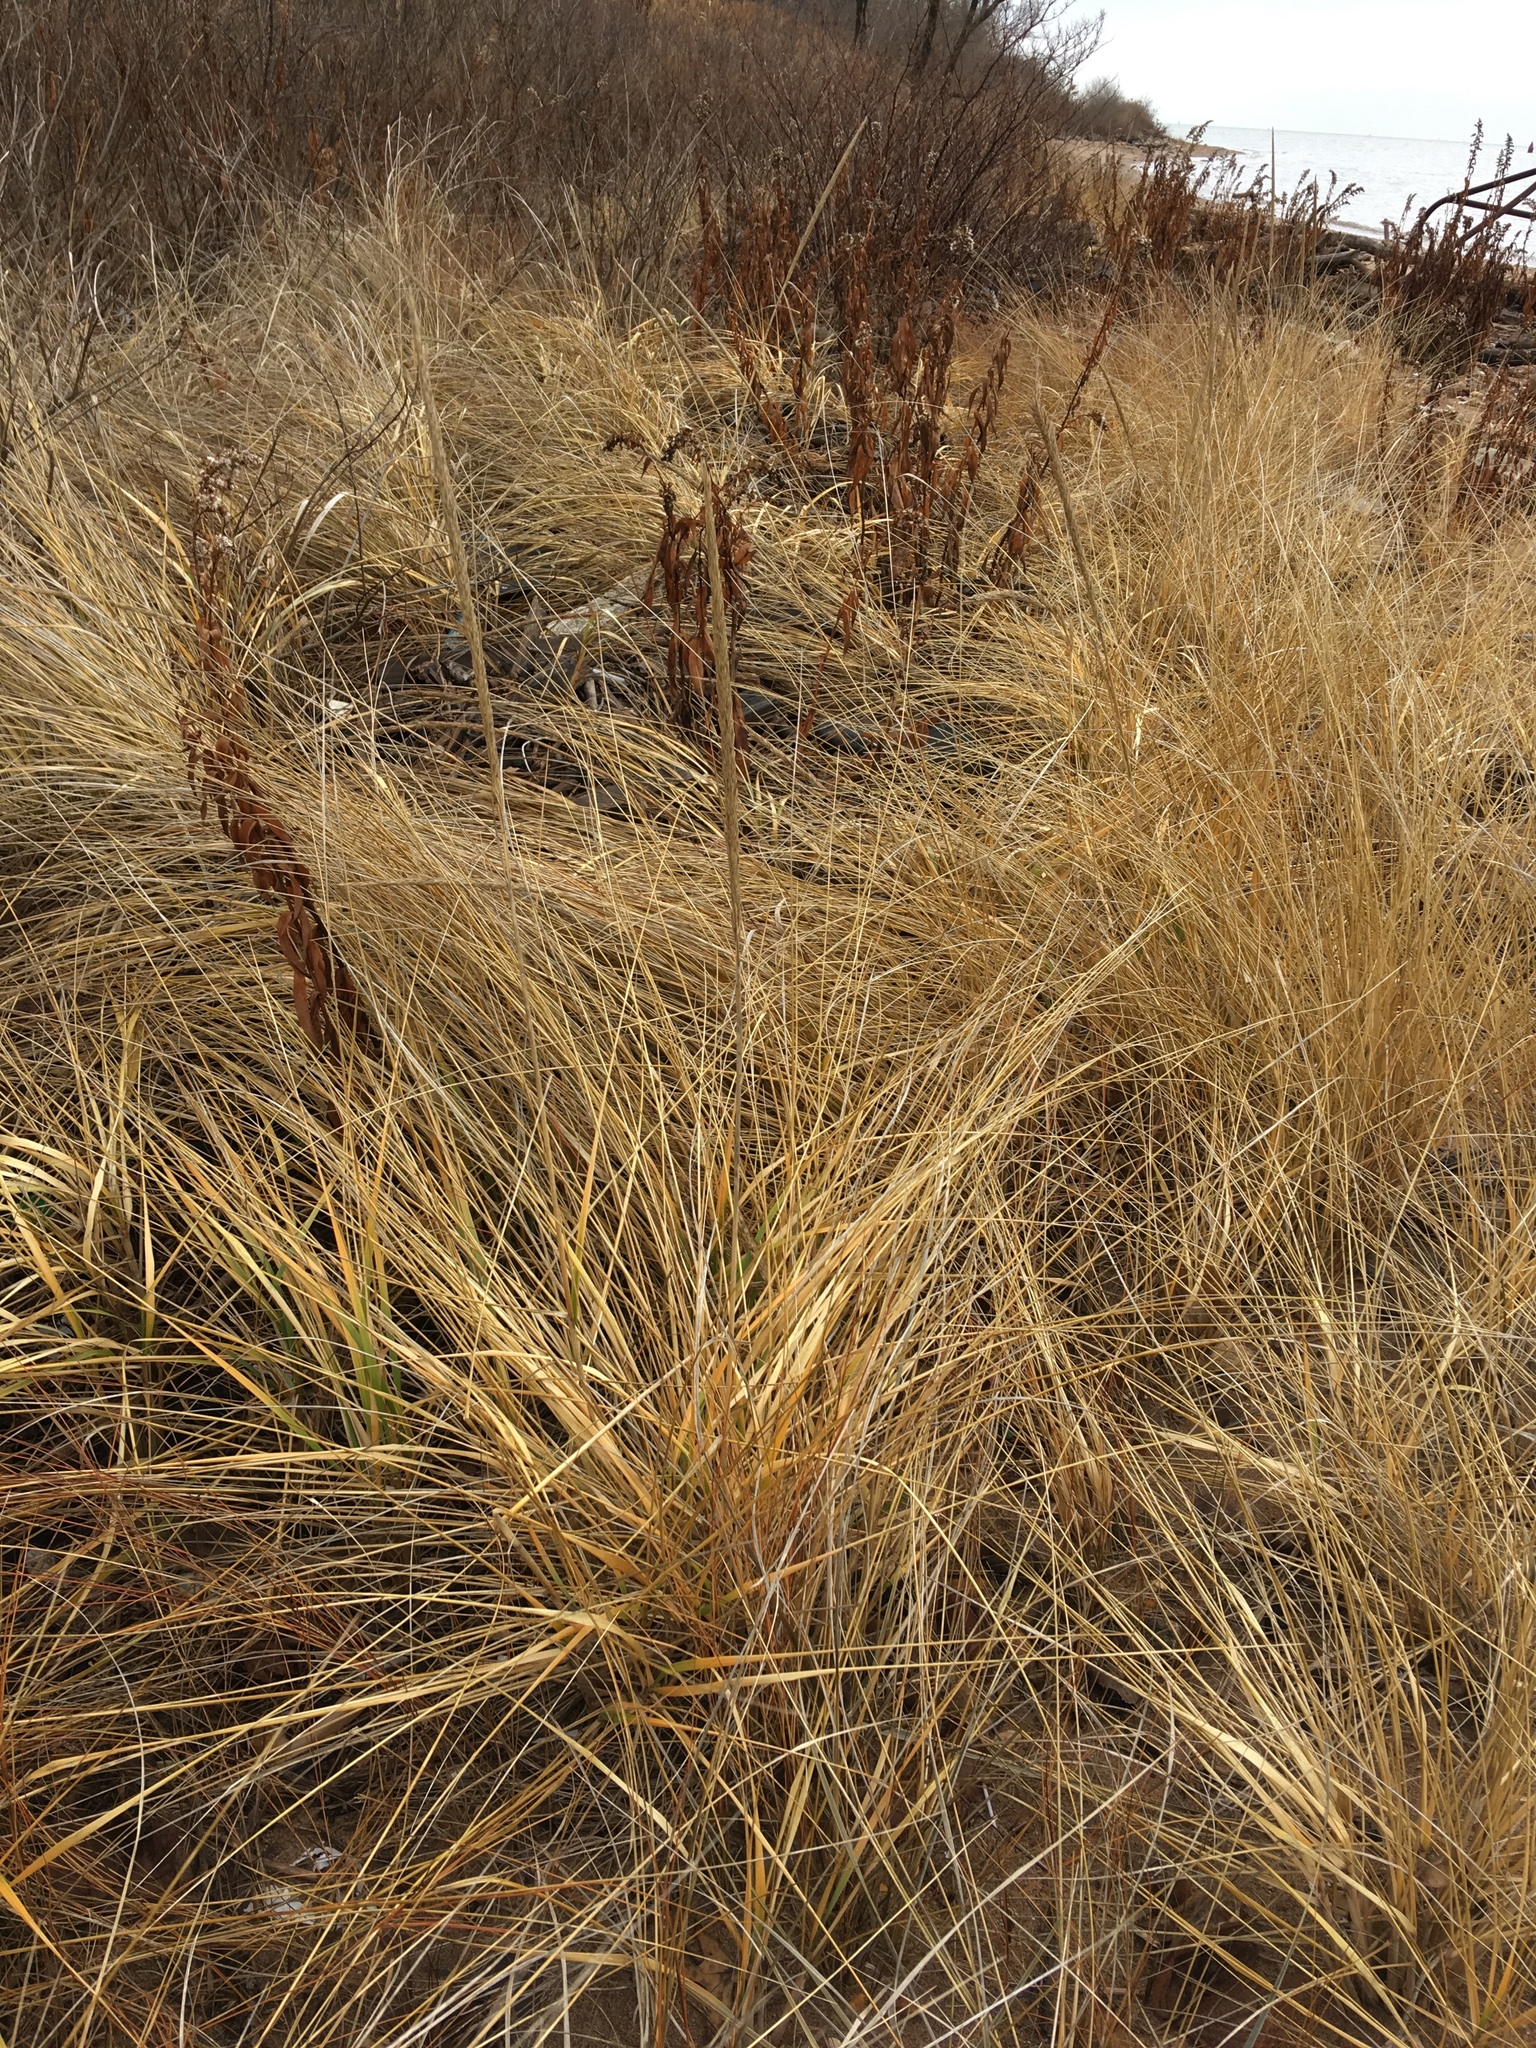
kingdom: Plantae
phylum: Tracheophyta
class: Liliopsida
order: Poales
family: Poaceae
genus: Calamagrostis
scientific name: Calamagrostis breviligulata
